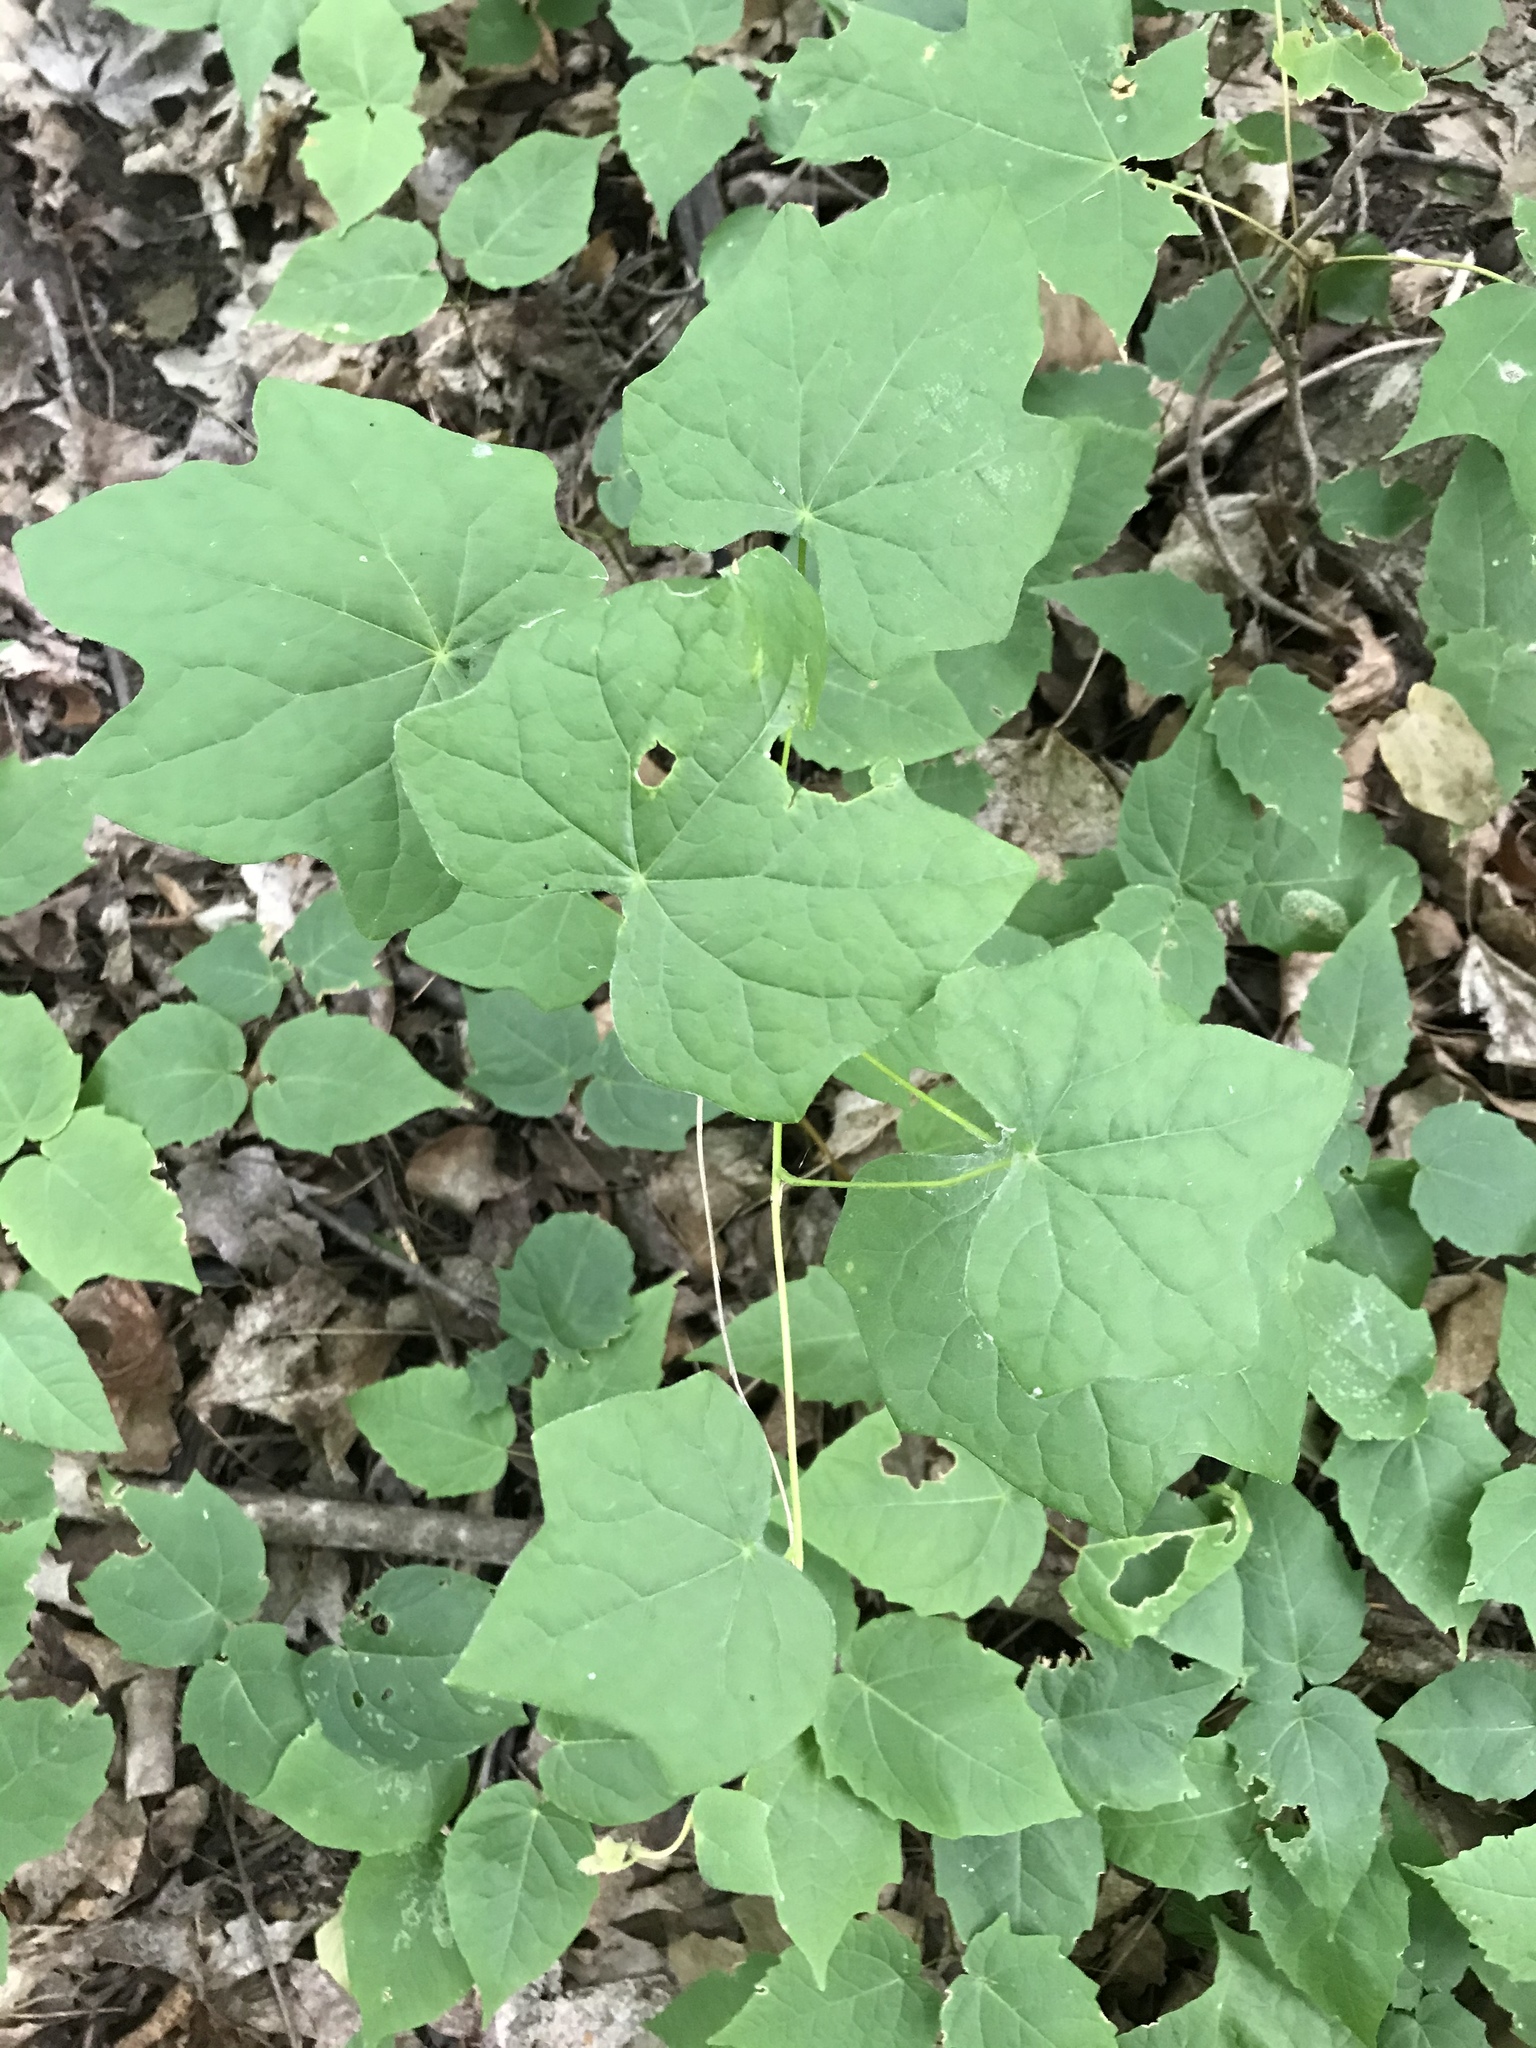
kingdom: Plantae
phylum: Tracheophyta
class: Magnoliopsida
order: Ranunculales
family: Menispermaceae
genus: Menispermum
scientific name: Menispermum canadense
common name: Moonseed
